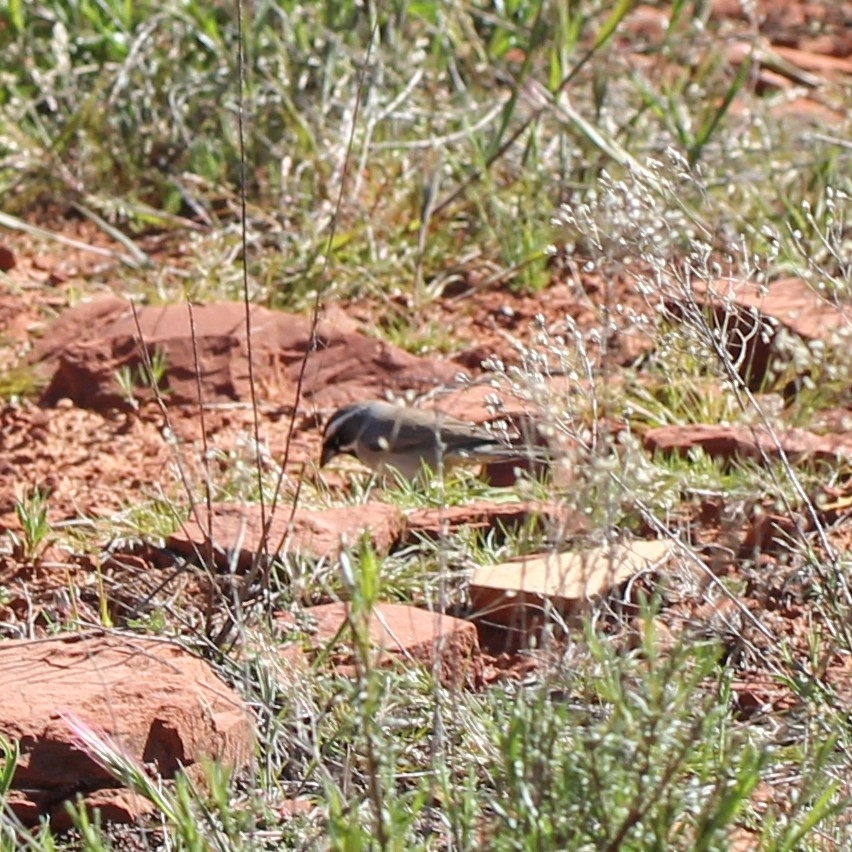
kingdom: Animalia
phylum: Chordata
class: Aves
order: Passeriformes
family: Passerellidae
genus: Amphispiza
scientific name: Amphispiza bilineata
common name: Black-throated sparrow
